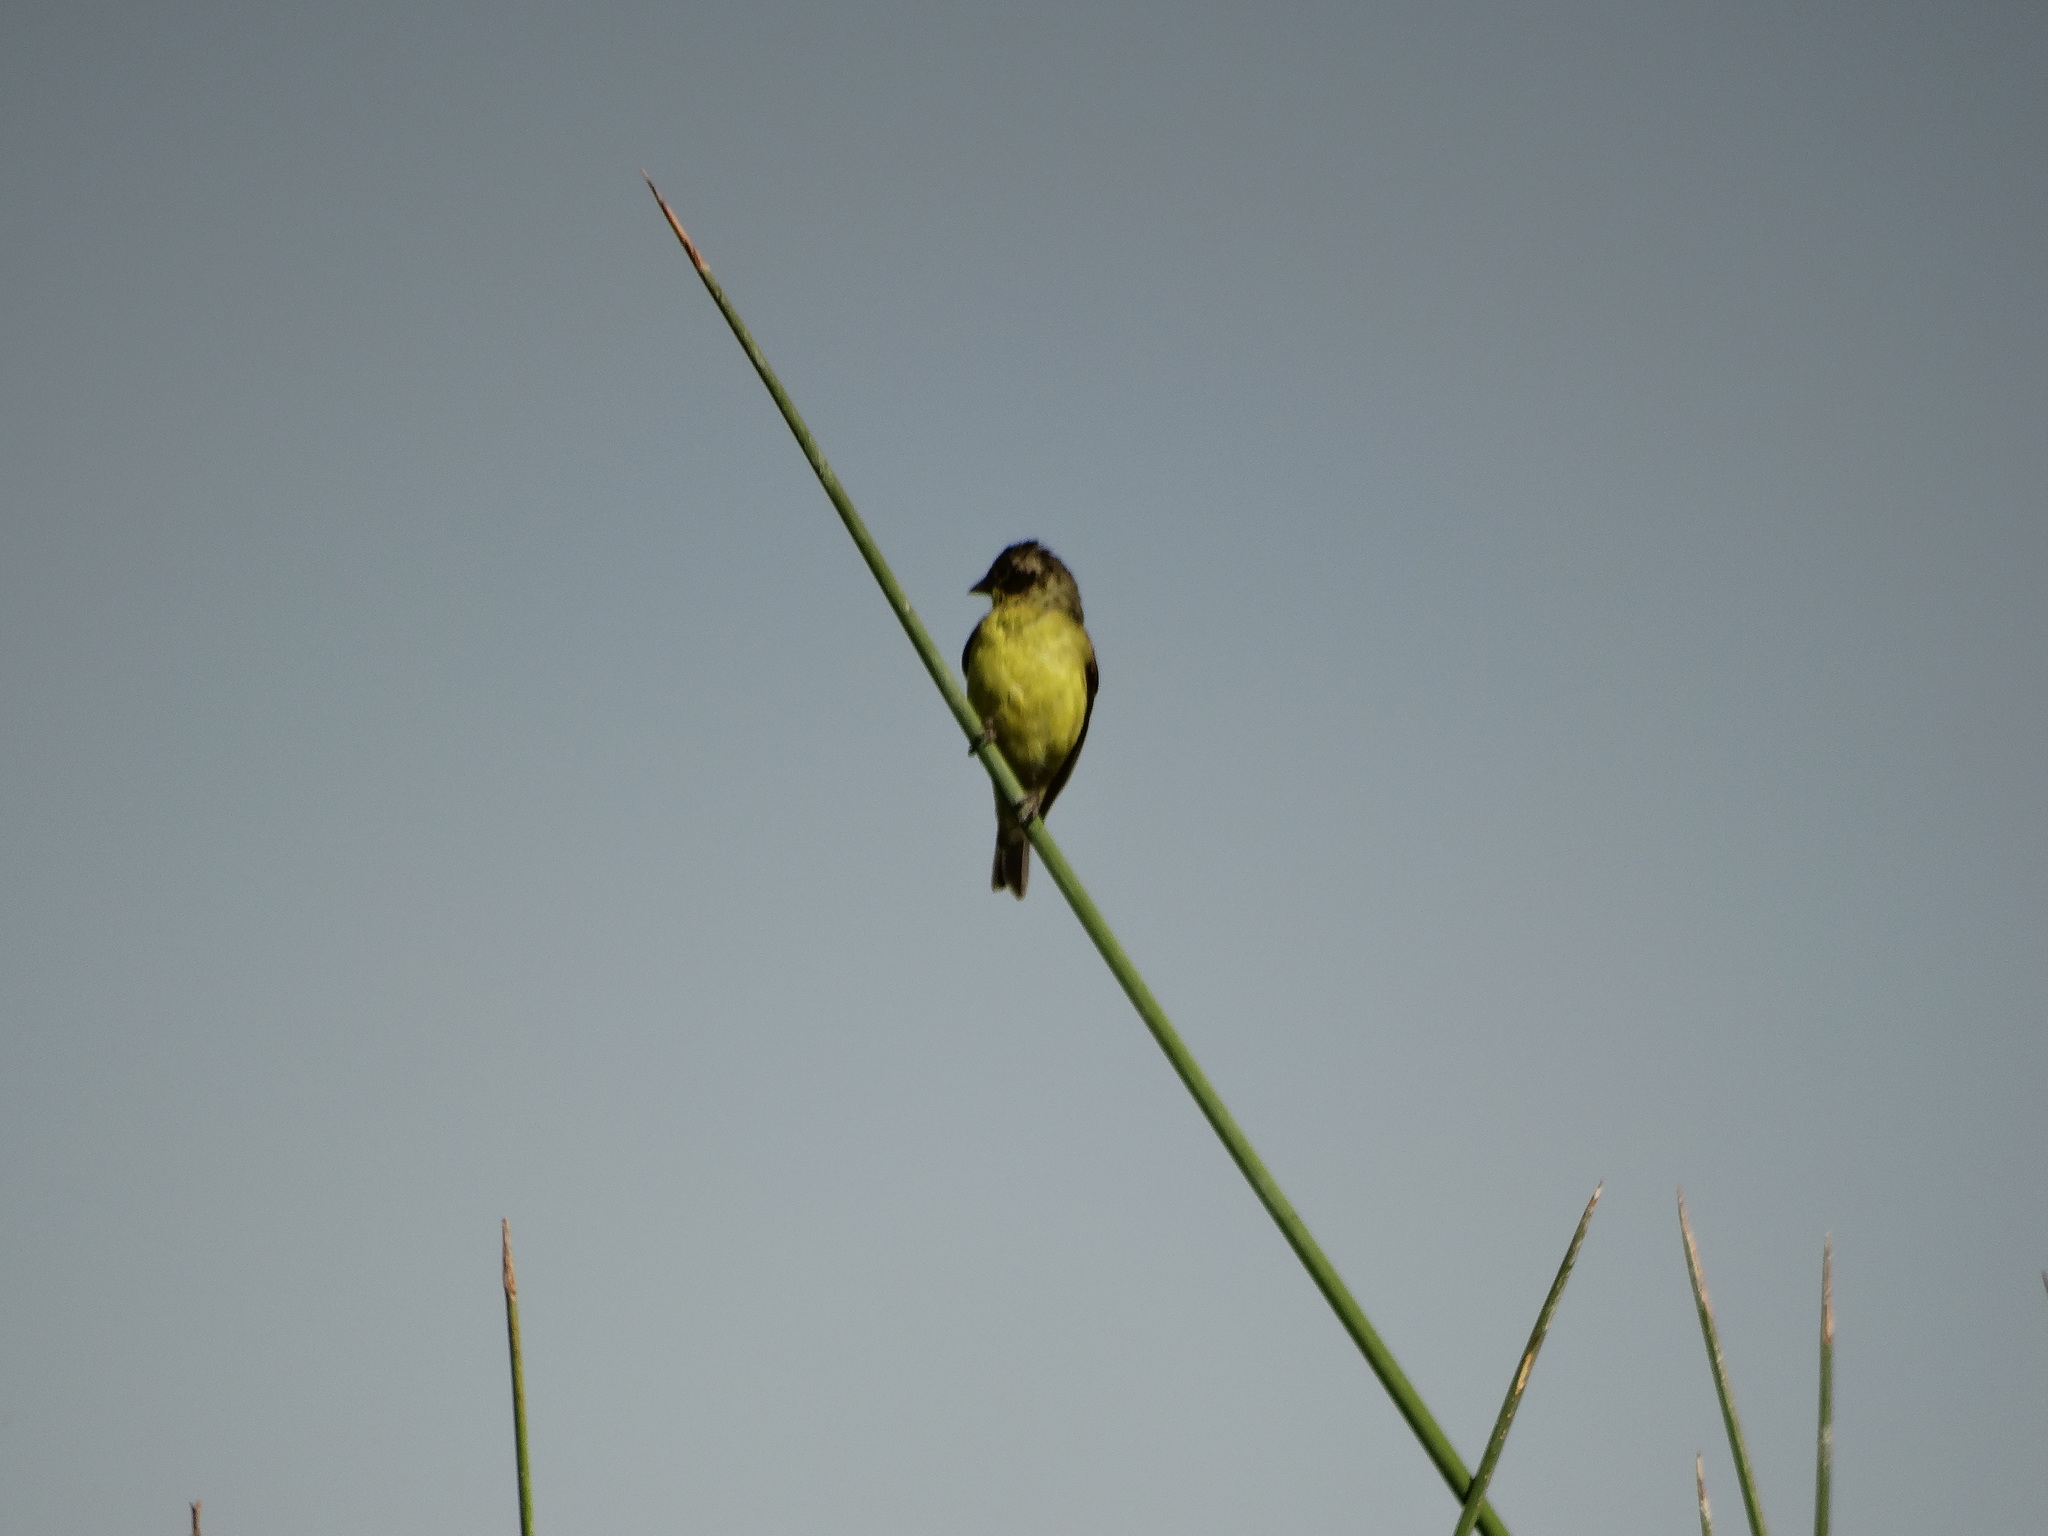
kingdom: Animalia
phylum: Chordata
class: Aves
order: Passeriformes
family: Fringillidae
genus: Spinus
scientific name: Spinus psaltria
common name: Lesser goldfinch
